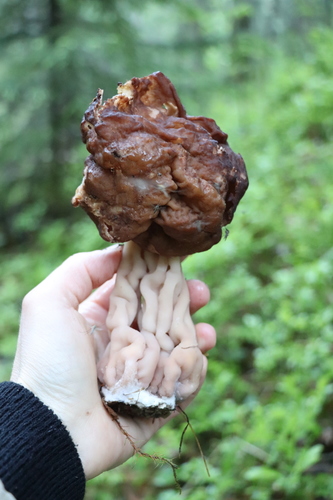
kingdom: Fungi
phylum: Ascomycota
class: Pezizomycetes
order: Pezizales
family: Discinaceae
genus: Gyromitra
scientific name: Gyromitra
